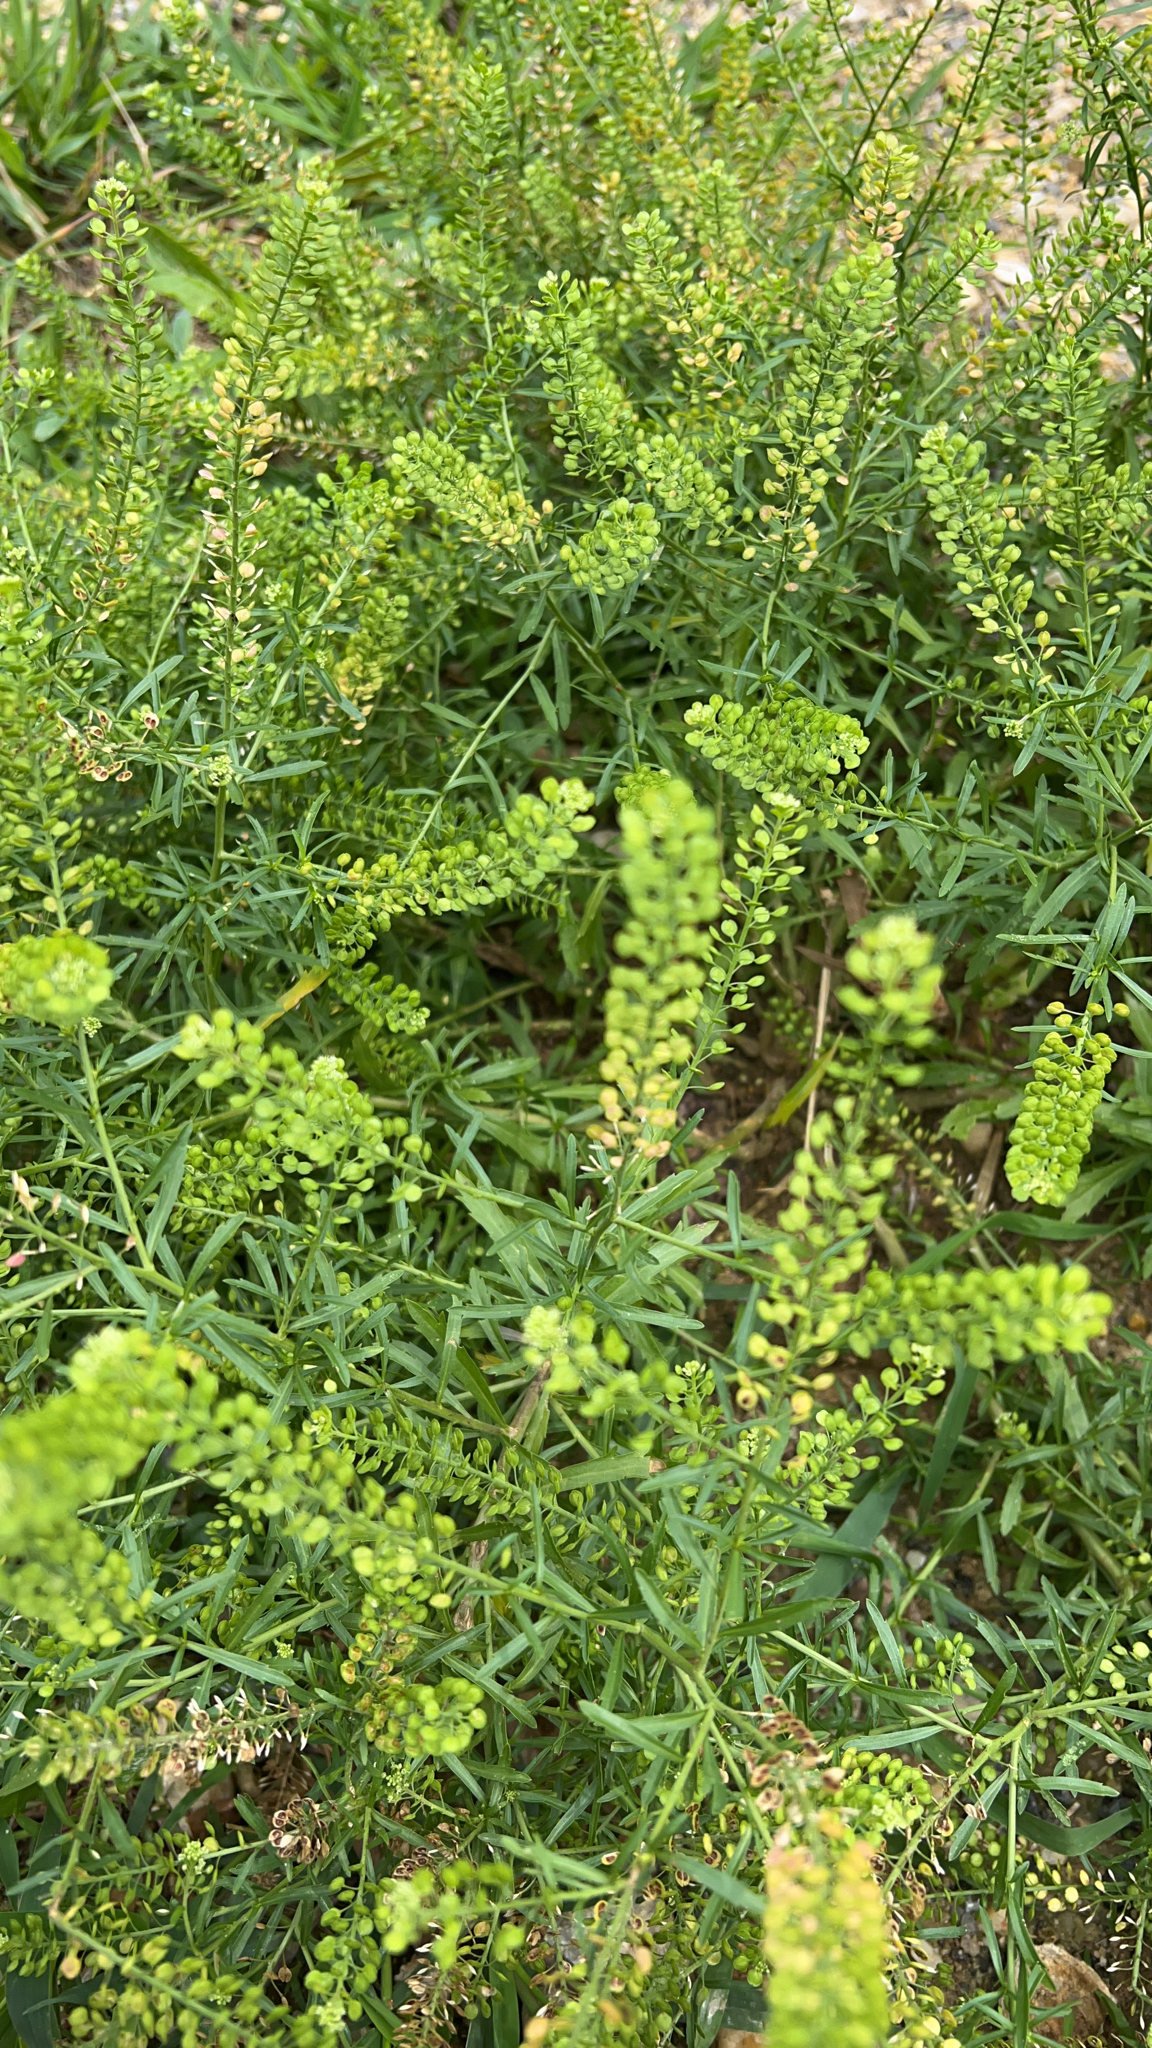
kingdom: Plantae
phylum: Tracheophyta
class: Magnoliopsida
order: Brassicales
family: Brassicaceae
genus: Lepidium
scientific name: Lepidium virginicum
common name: Least pepperwort
